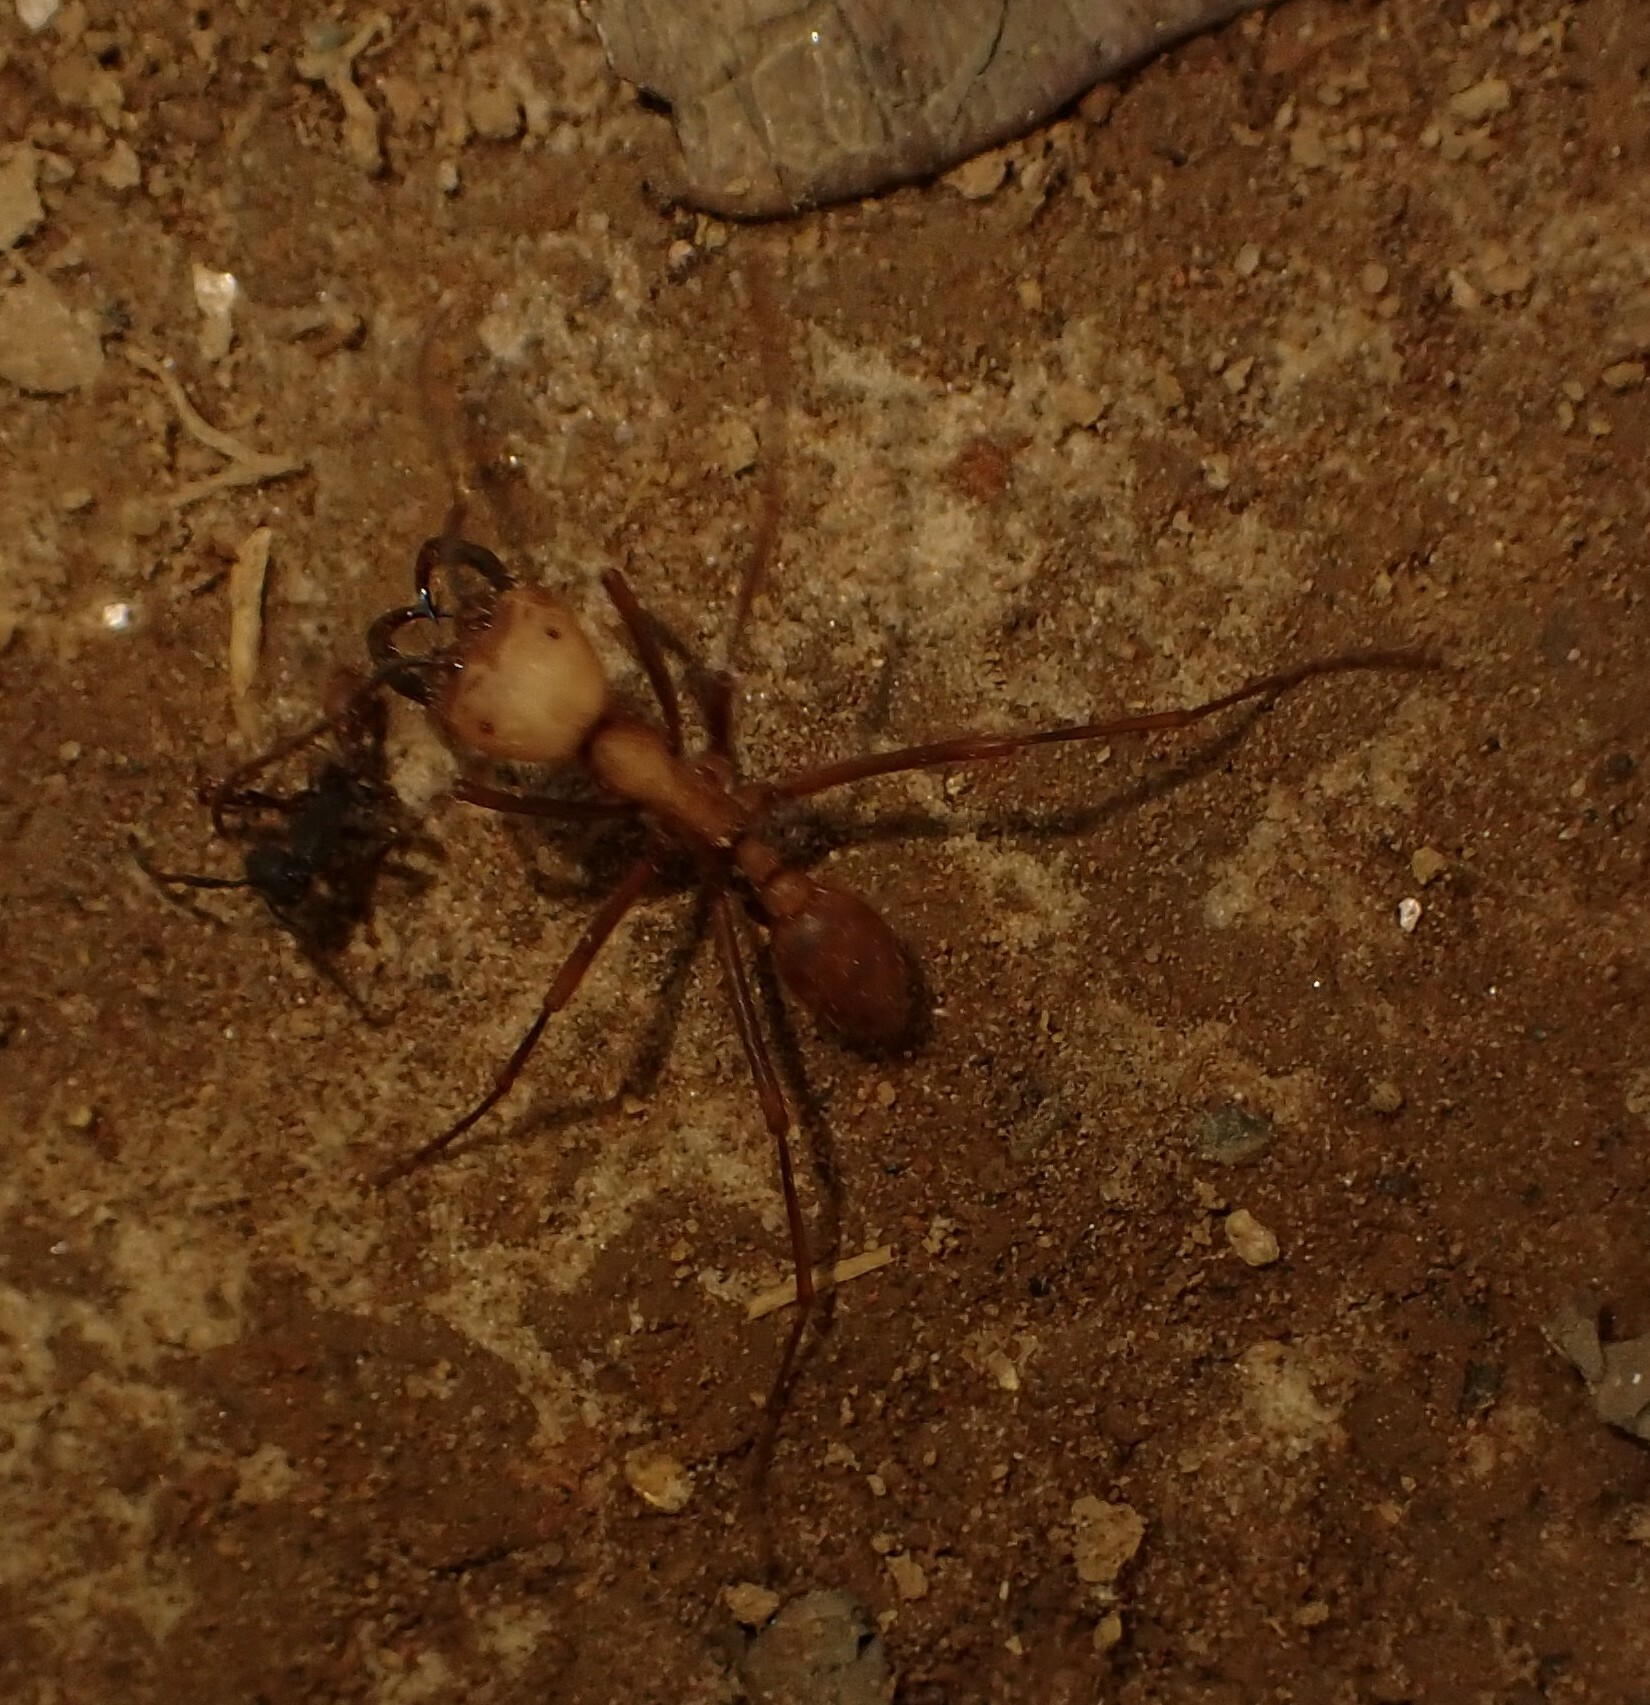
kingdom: Animalia
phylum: Arthropoda
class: Insecta
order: Hymenoptera
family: Formicidae
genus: Eciton
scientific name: Eciton burchellii
